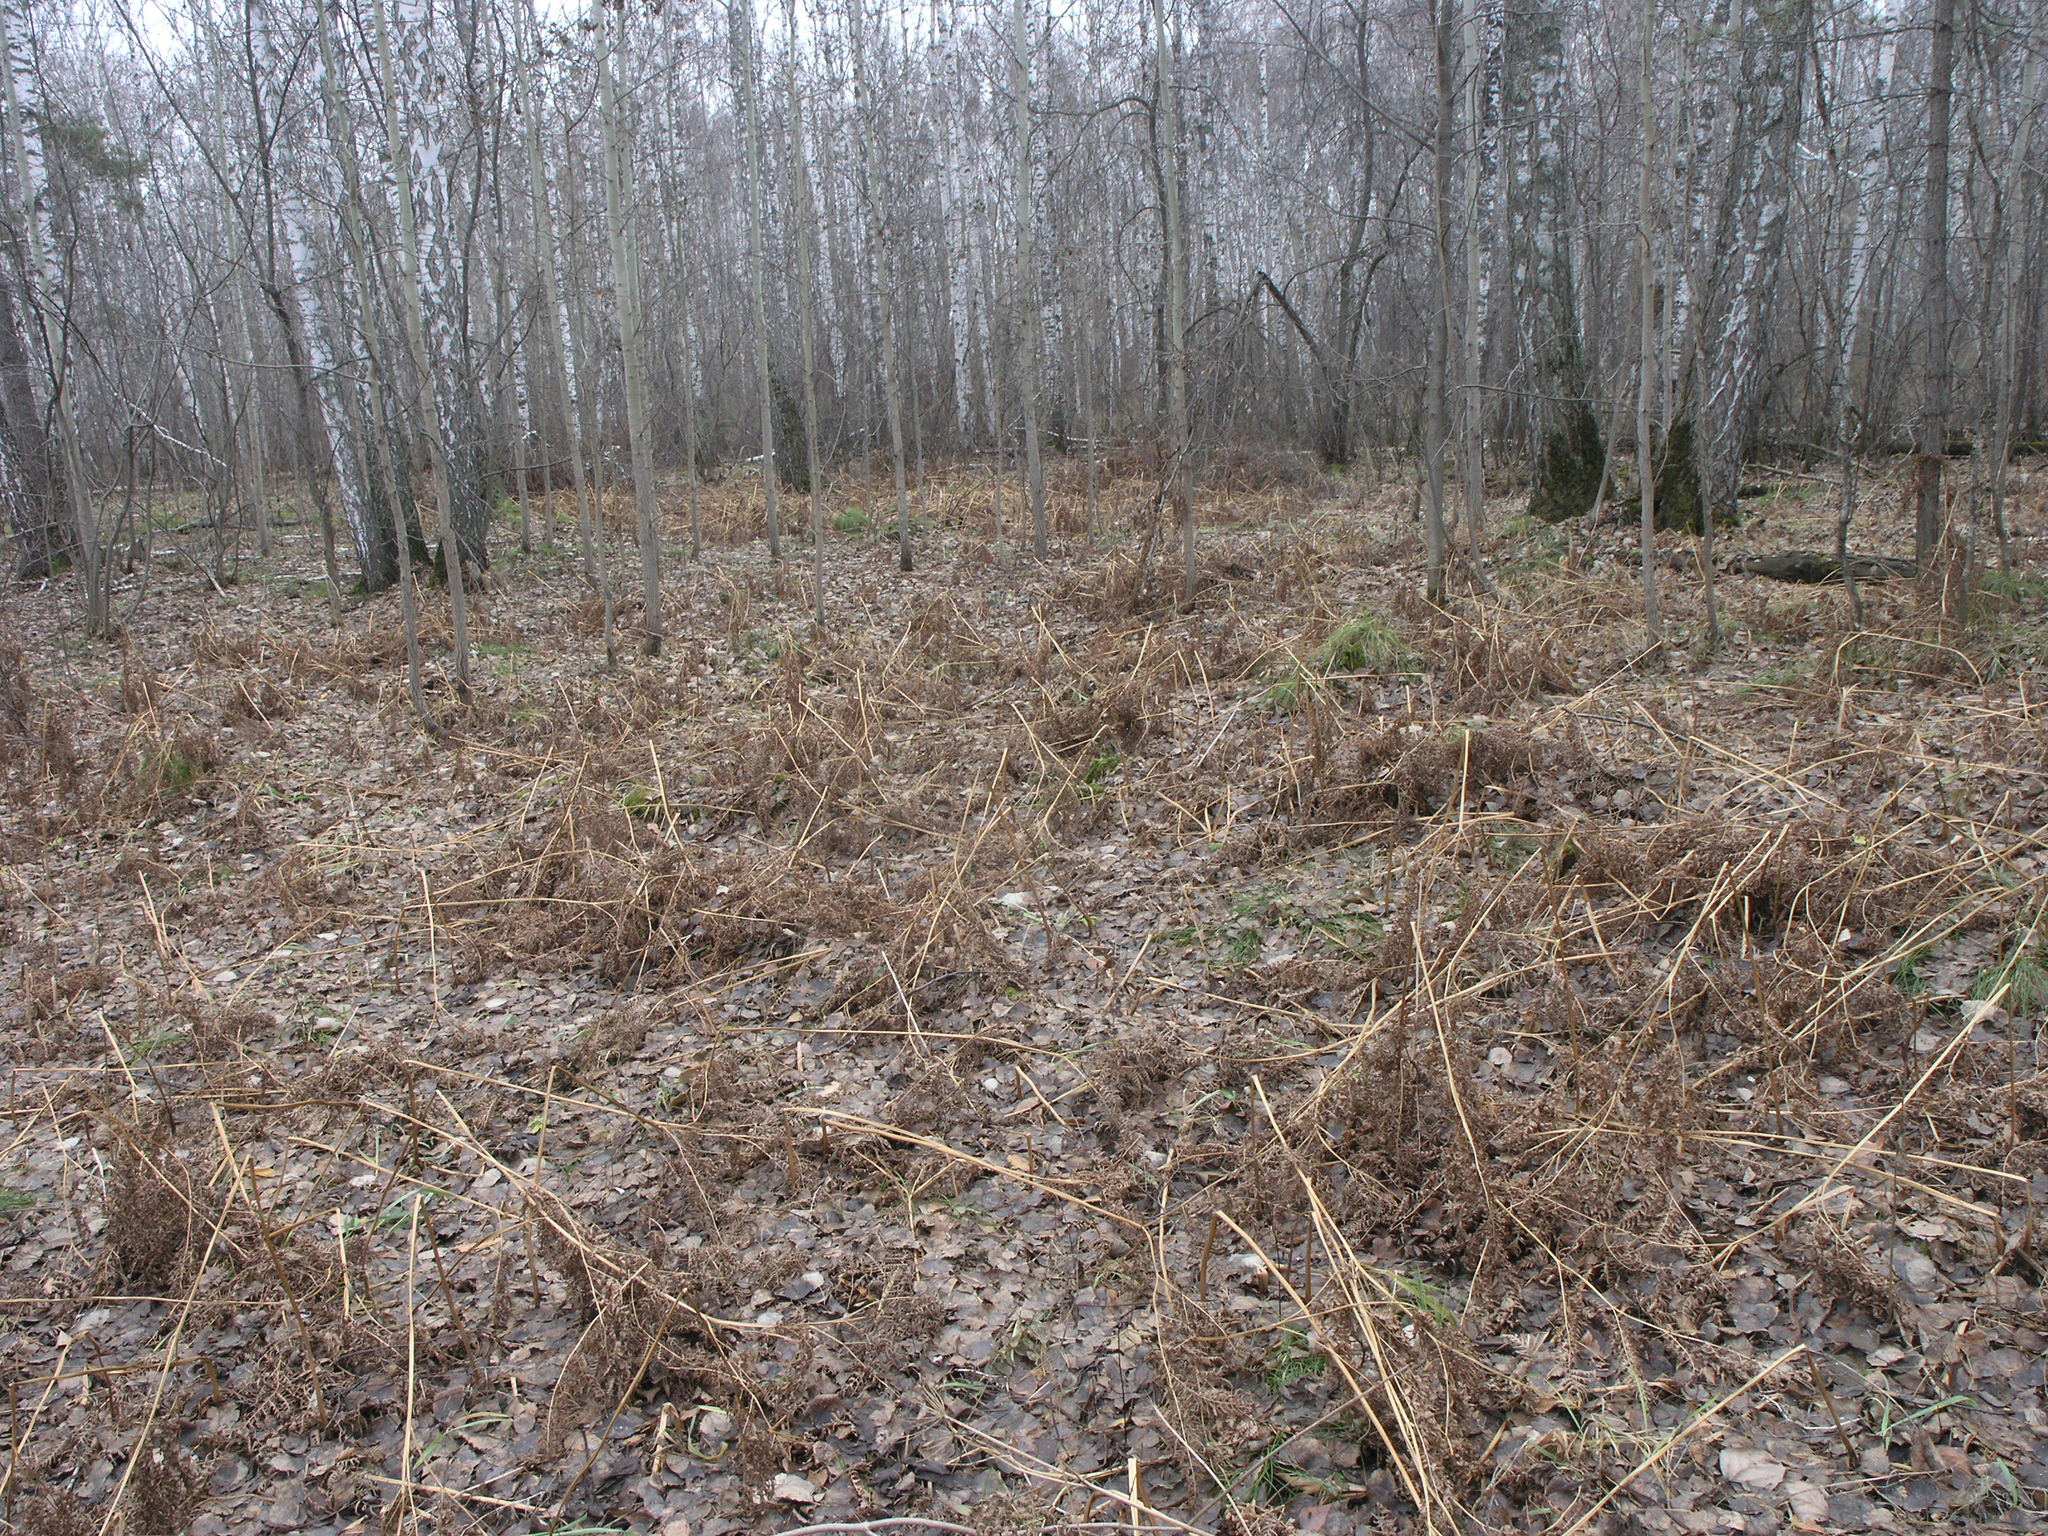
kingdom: Plantae
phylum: Tracheophyta
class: Polypodiopsida
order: Polypodiales
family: Dennstaedtiaceae
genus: Pteridium
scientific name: Pteridium aquilinum
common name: Bracken
